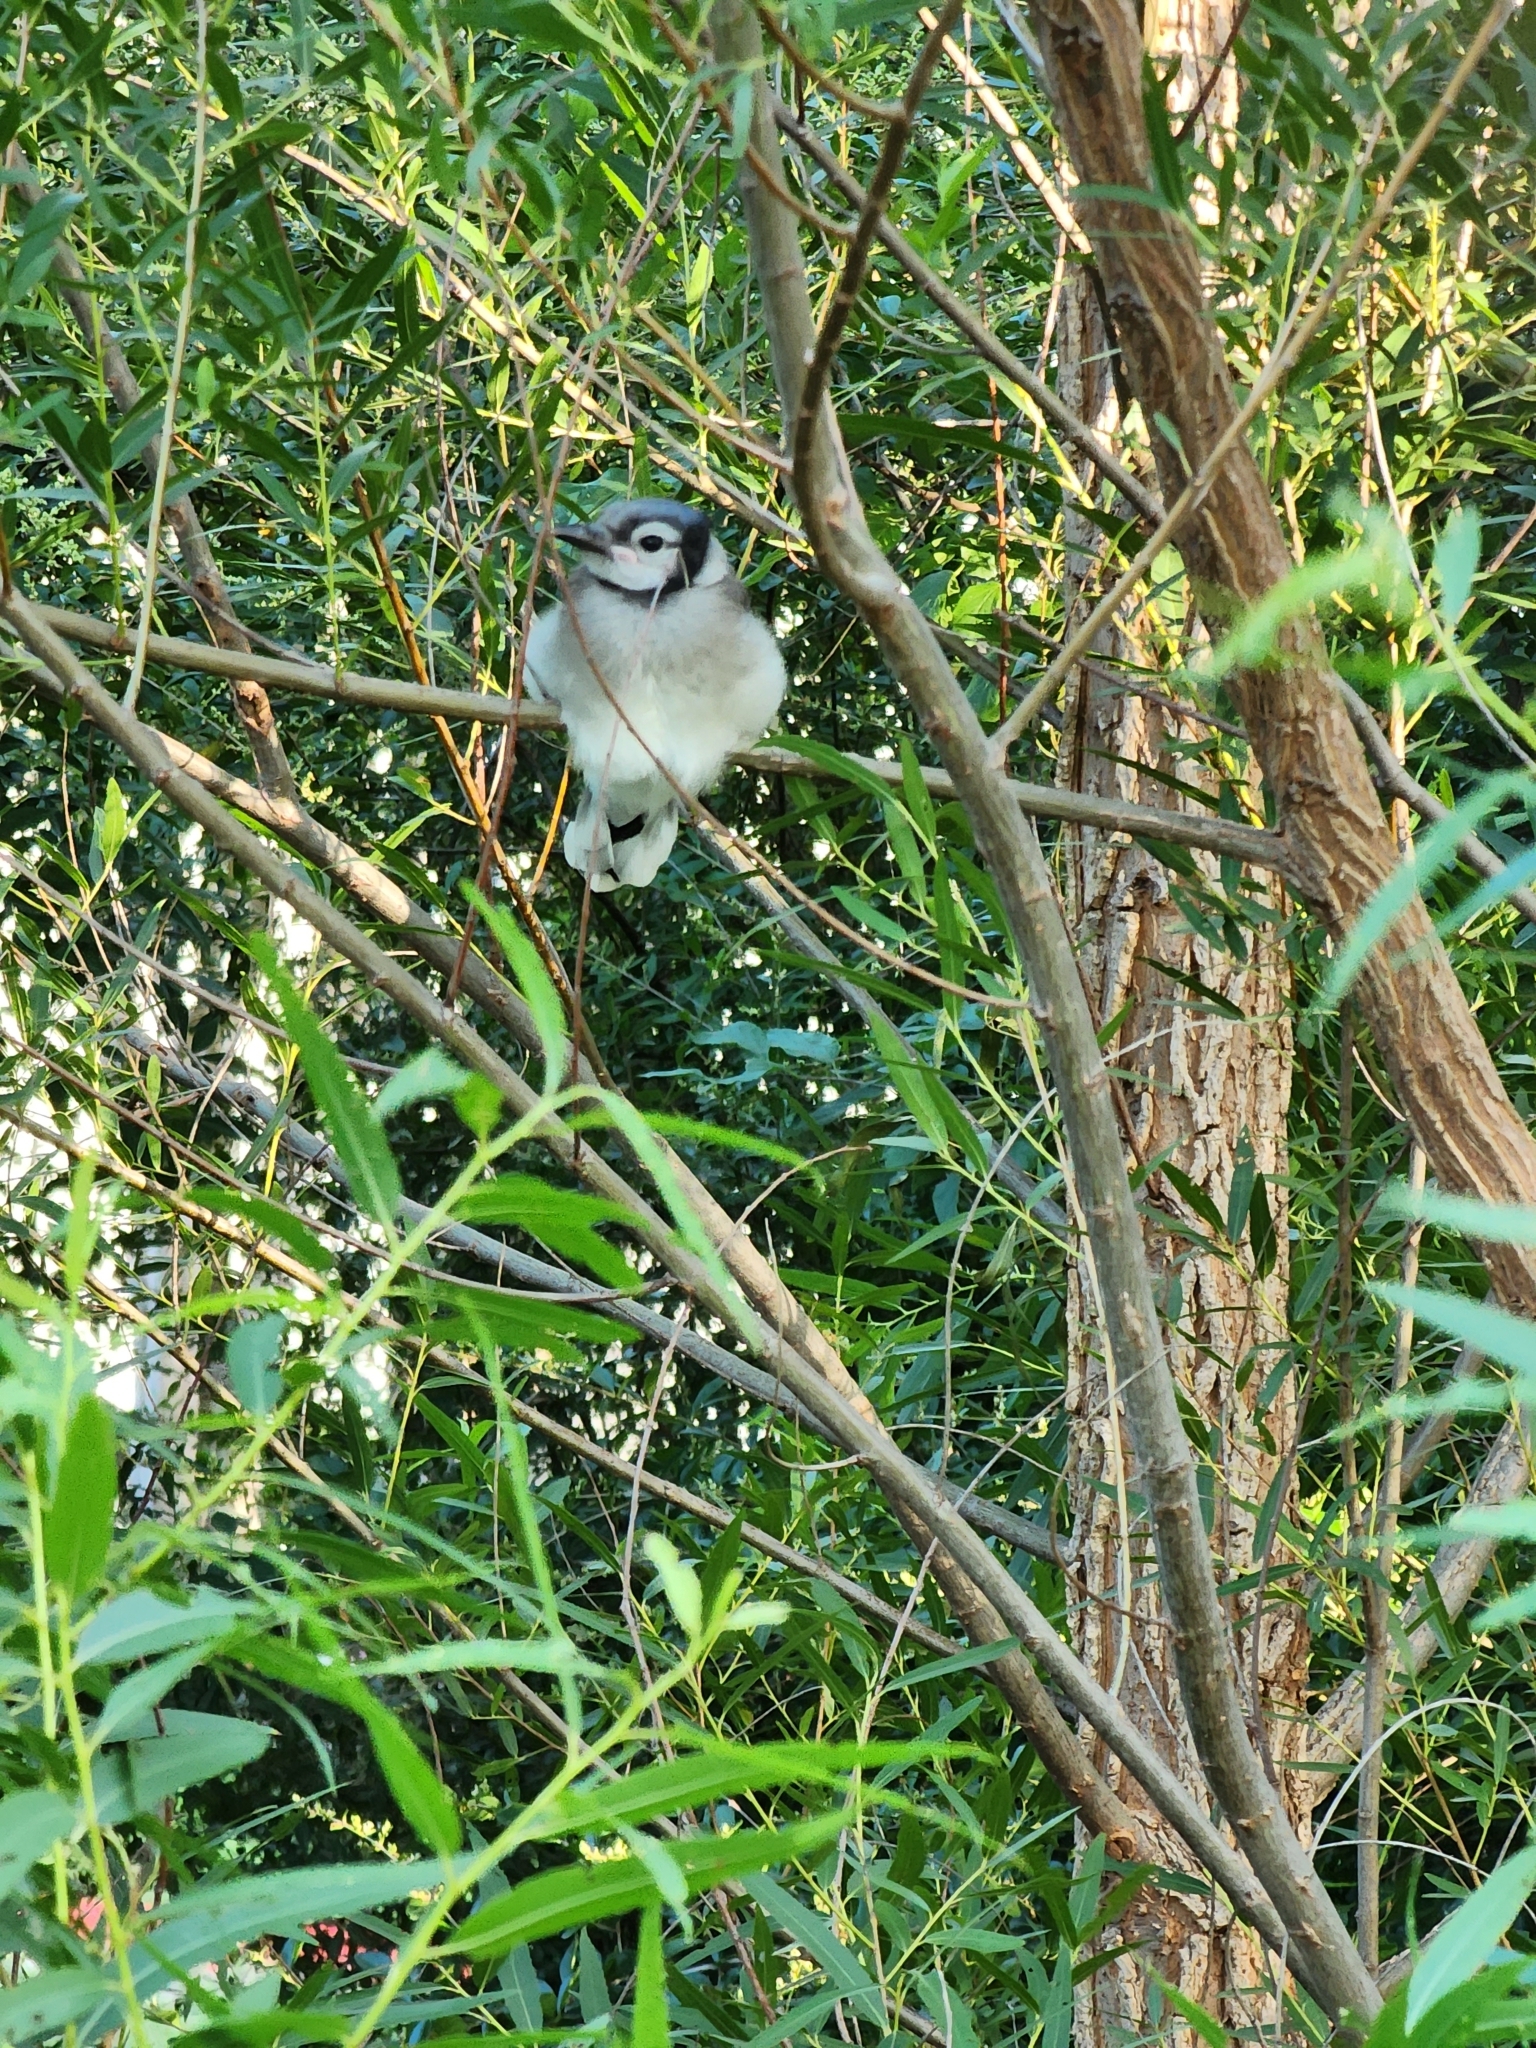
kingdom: Animalia
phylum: Chordata
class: Aves
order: Passeriformes
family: Corvidae
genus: Cyanocitta
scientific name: Cyanocitta cristata
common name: Blue jay
